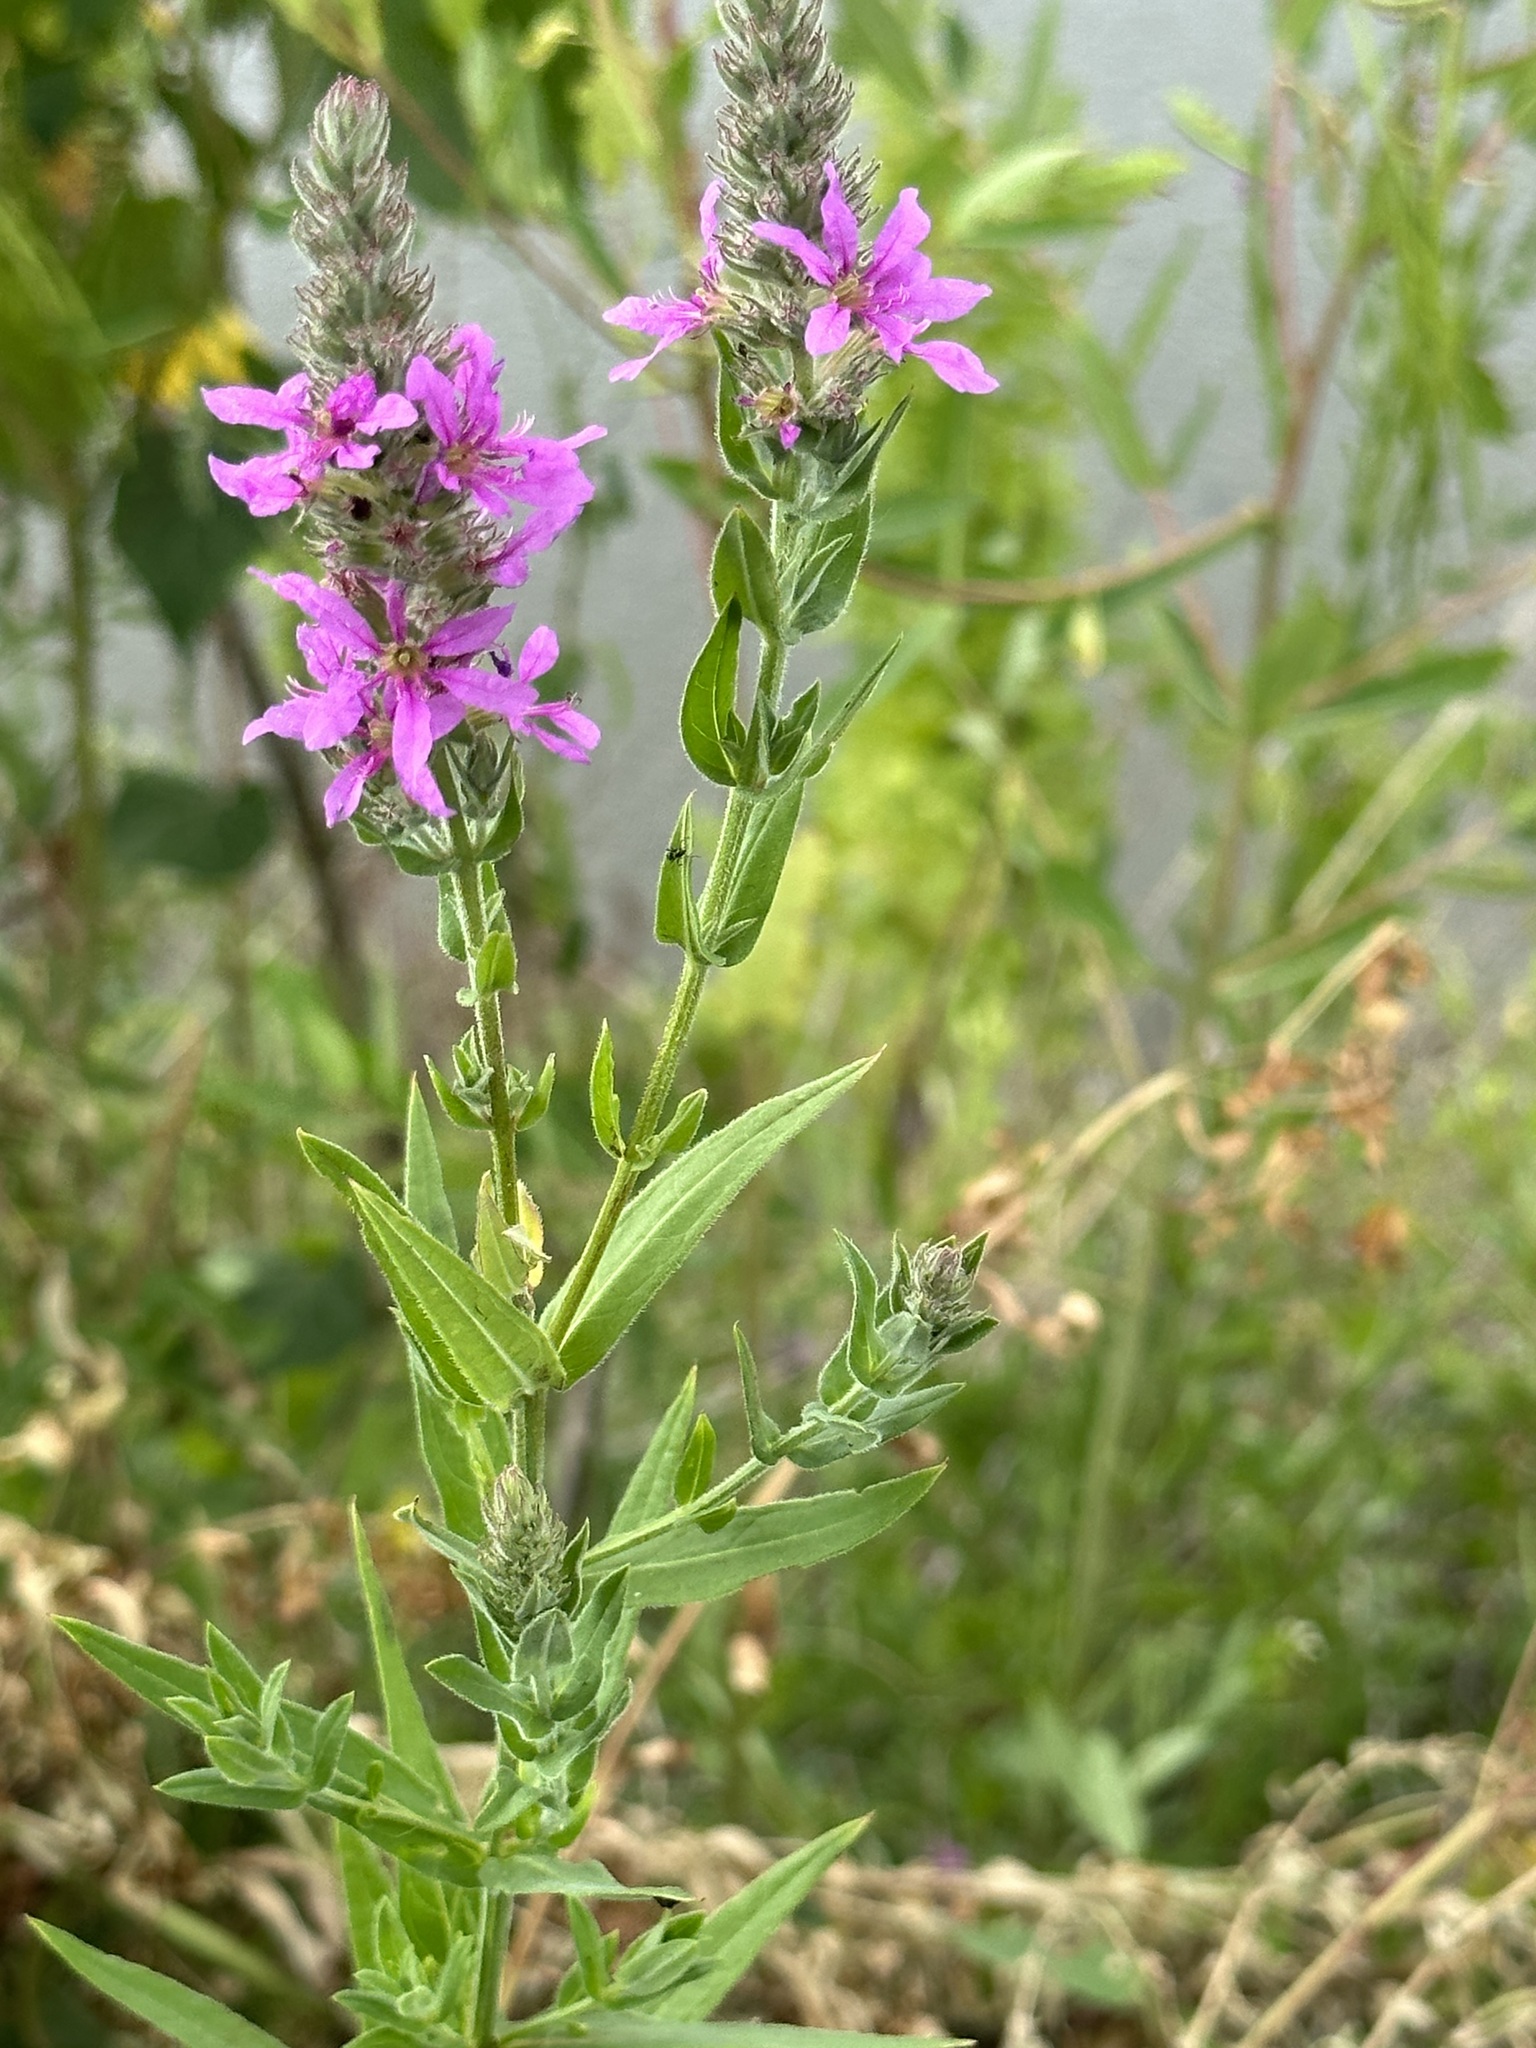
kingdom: Plantae
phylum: Tracheophyta
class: Magnoliopsida
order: Myrtales
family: Lythraceae
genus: Lythrum
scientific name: Lythrum salicaria
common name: Purple loosestrife
